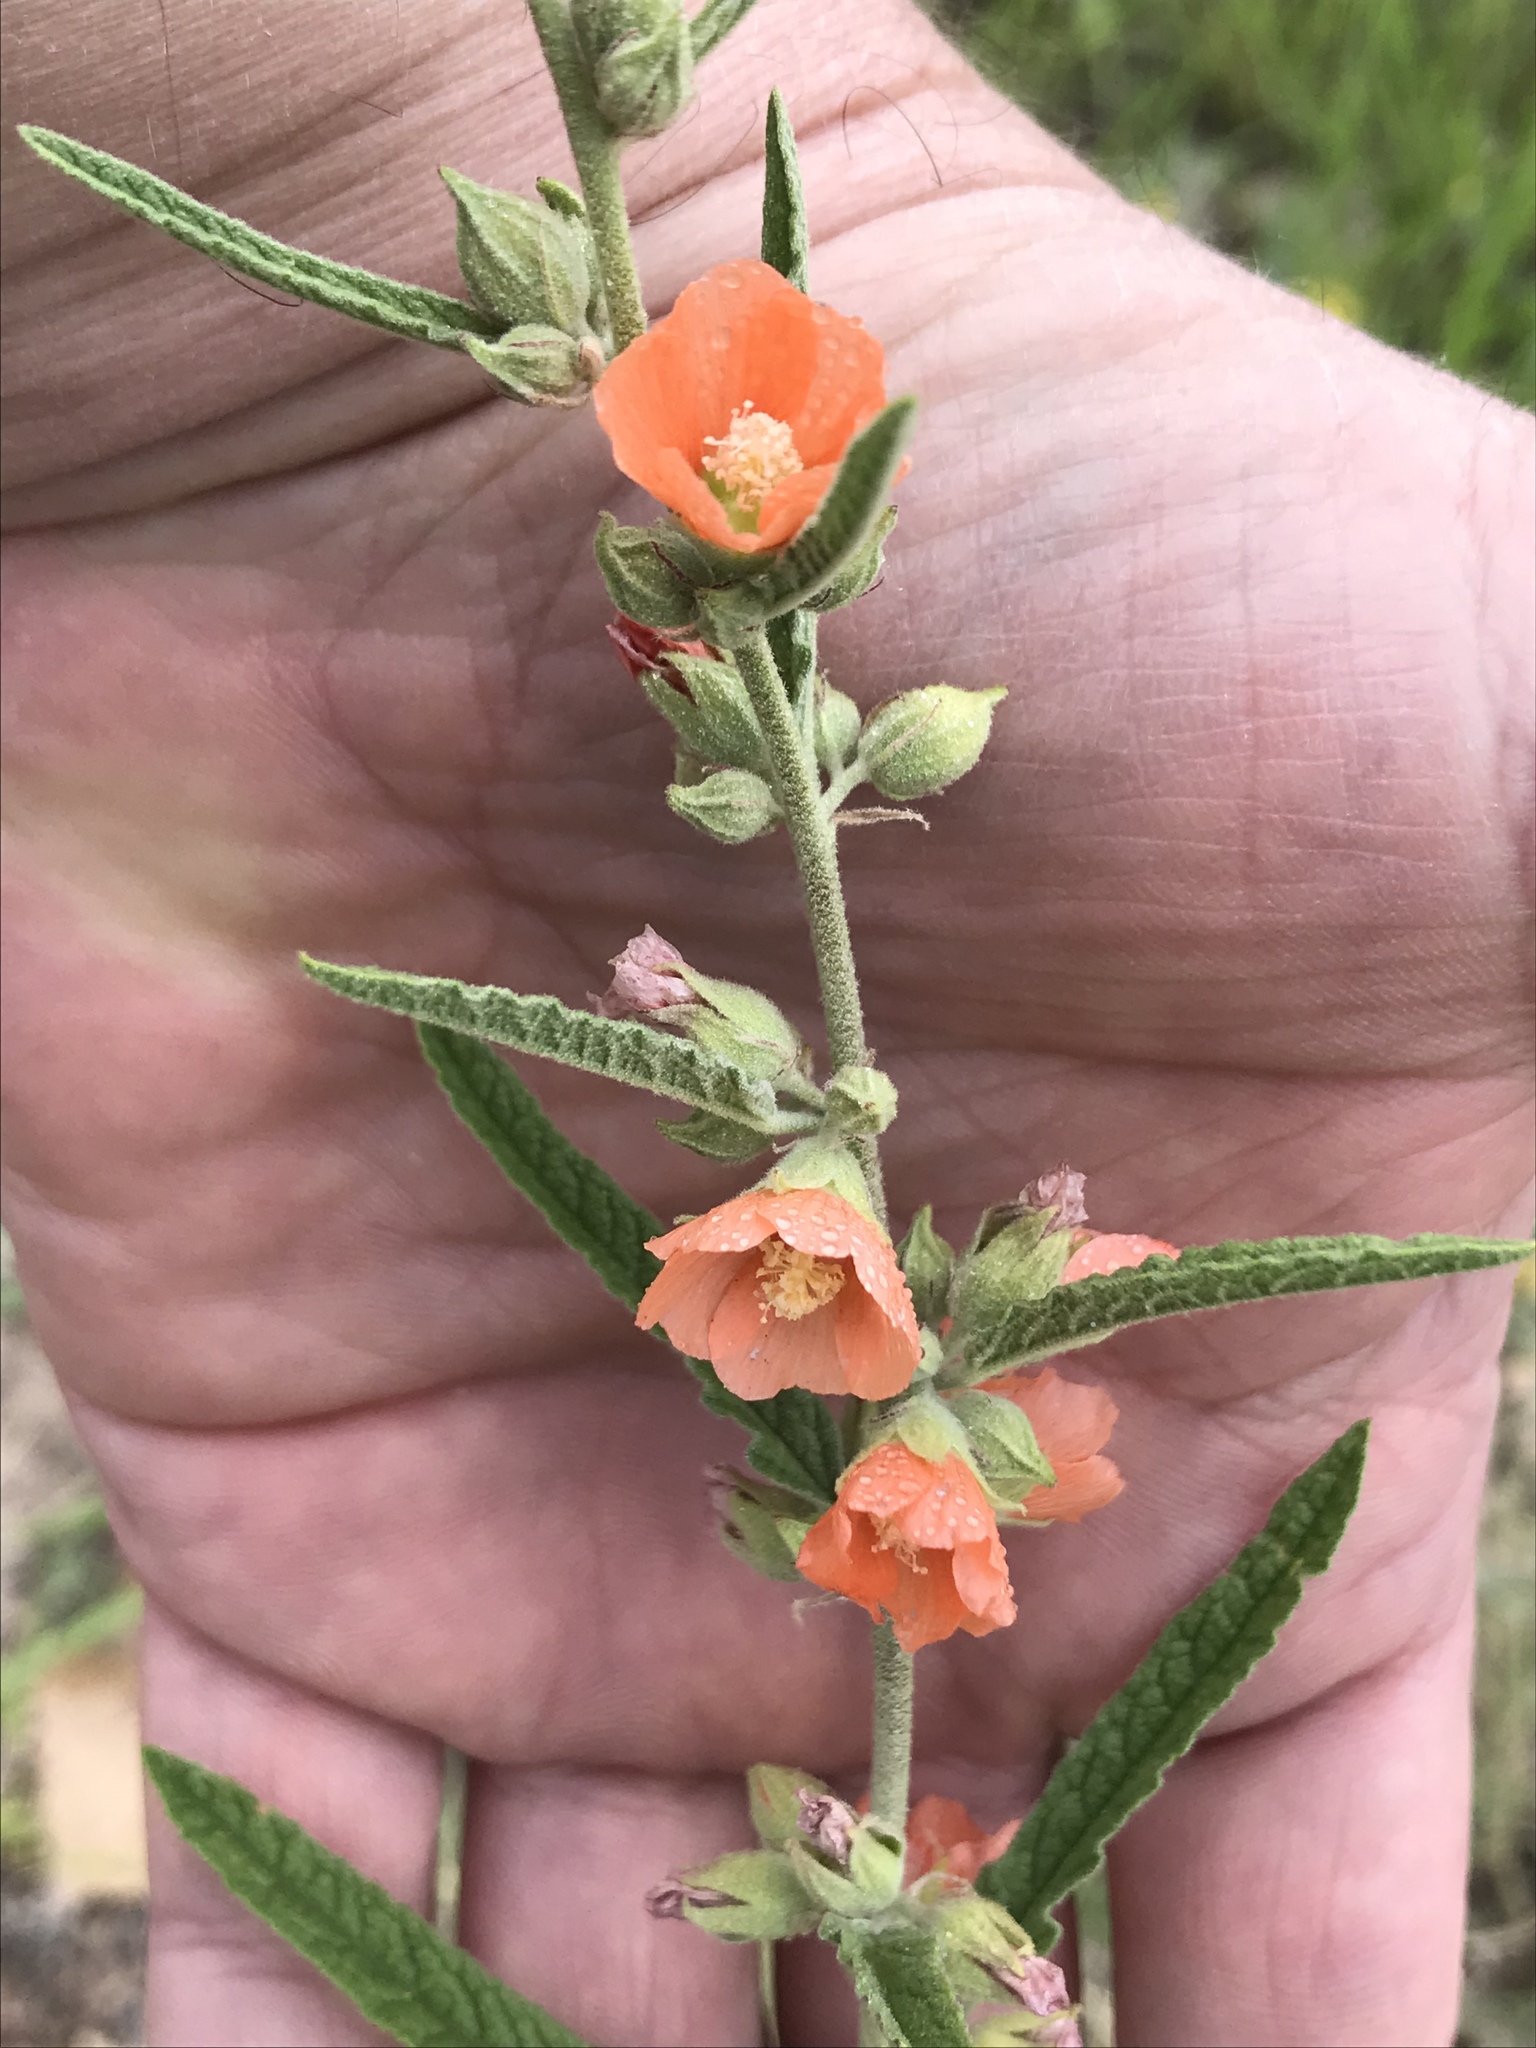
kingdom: Plantae
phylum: Tracheophyta
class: Magnoliopsida
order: Malvales
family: Malvaceae
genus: Sphaeralcea
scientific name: Sphaeralcea angustifolia
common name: Copper globe-mallow
